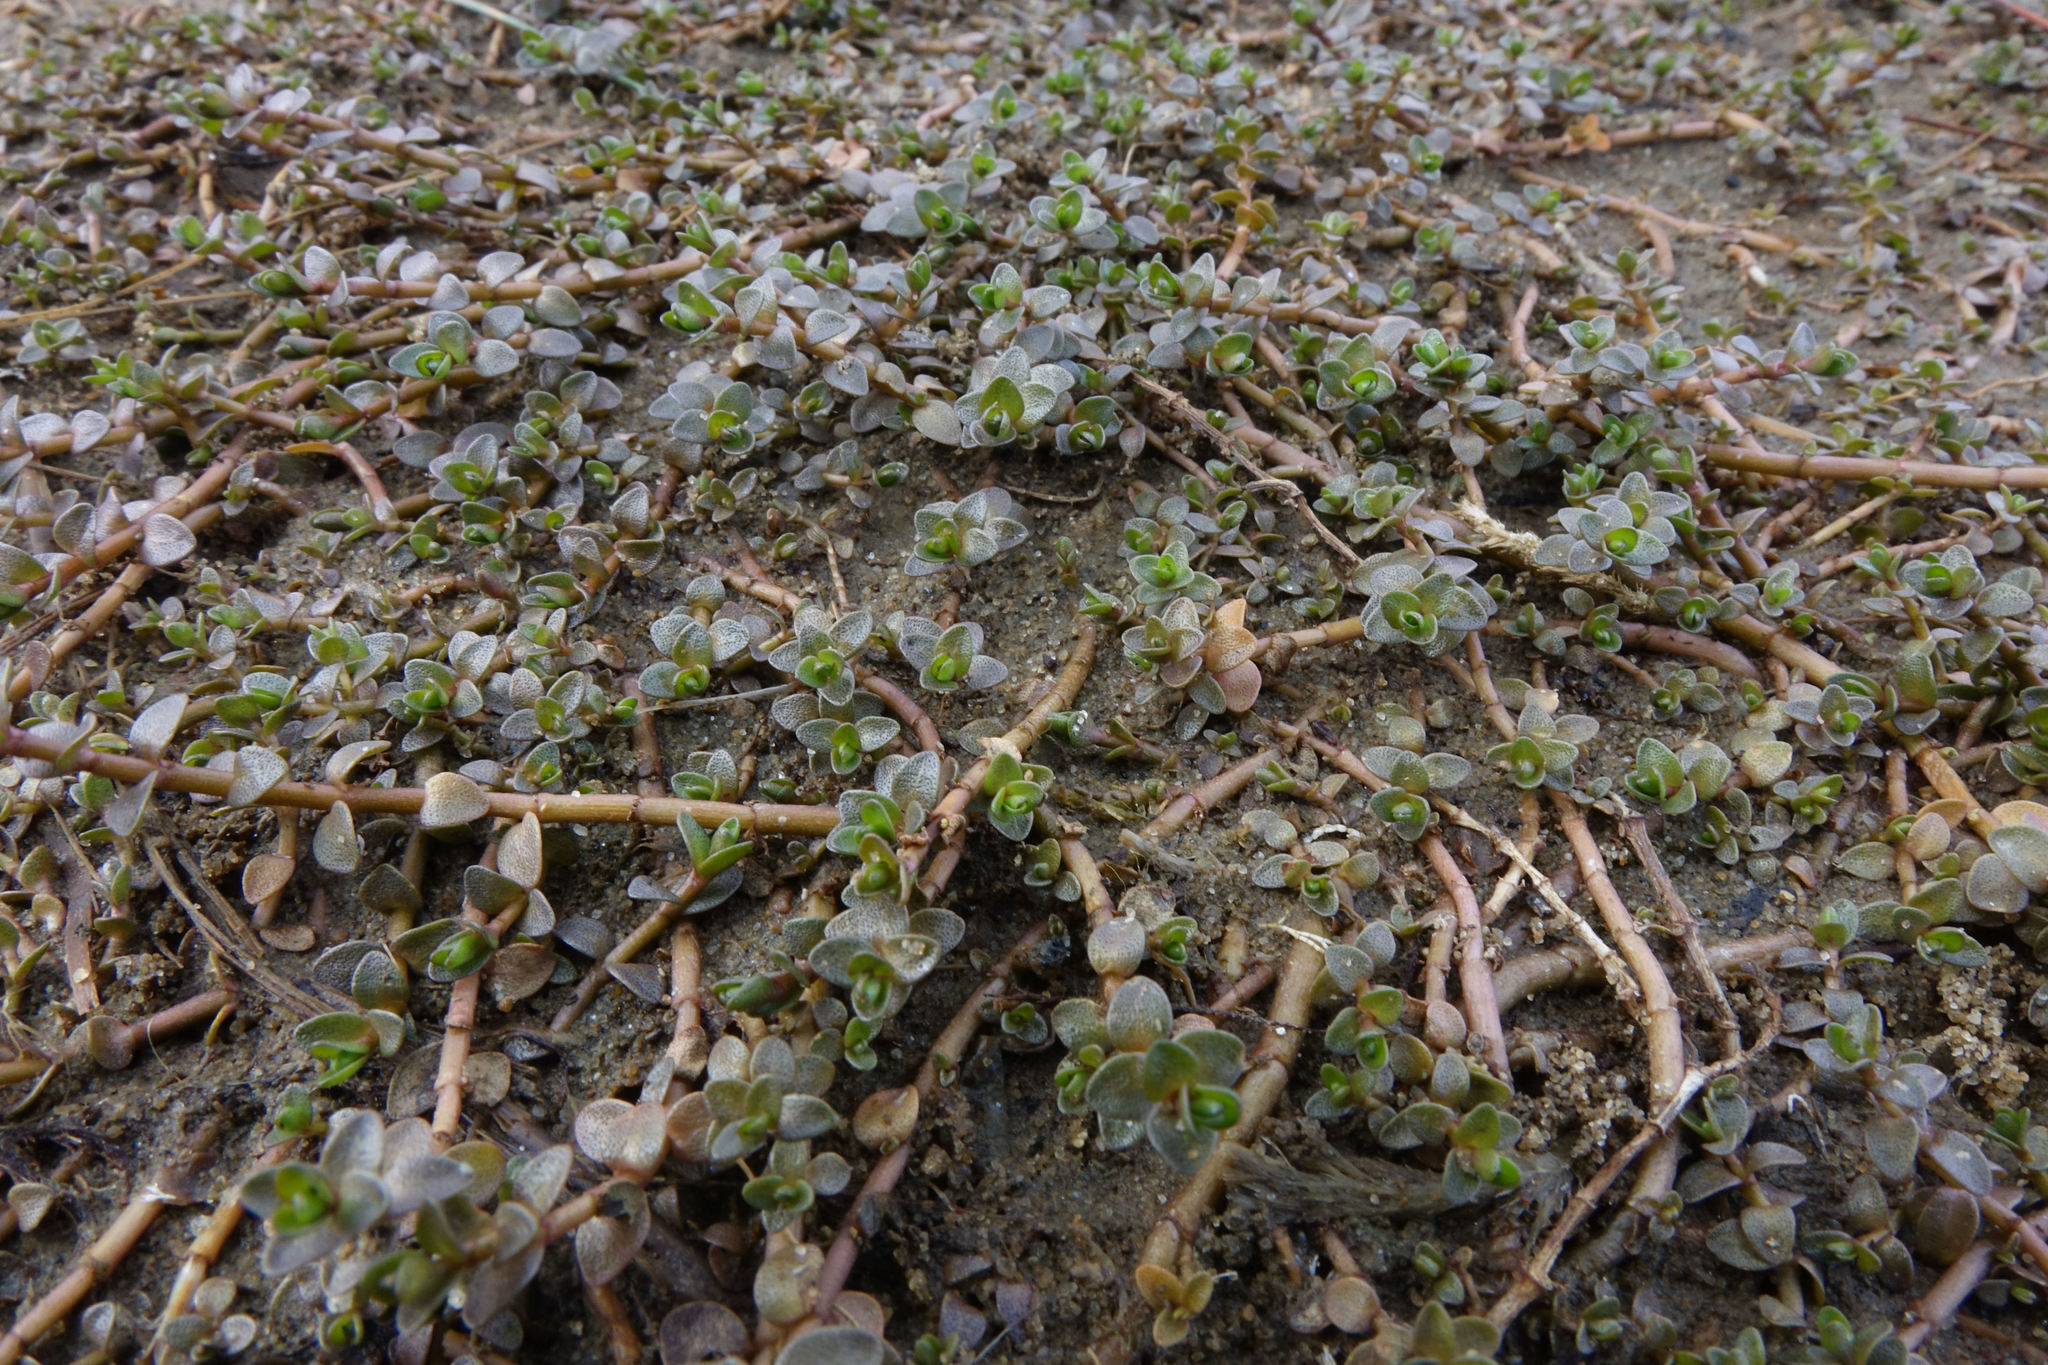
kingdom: Plantae
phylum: Tracheophyta
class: Magnoliopsida
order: Lamiales
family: Phrymaceae
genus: Thyridia
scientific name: Thyridia repens
